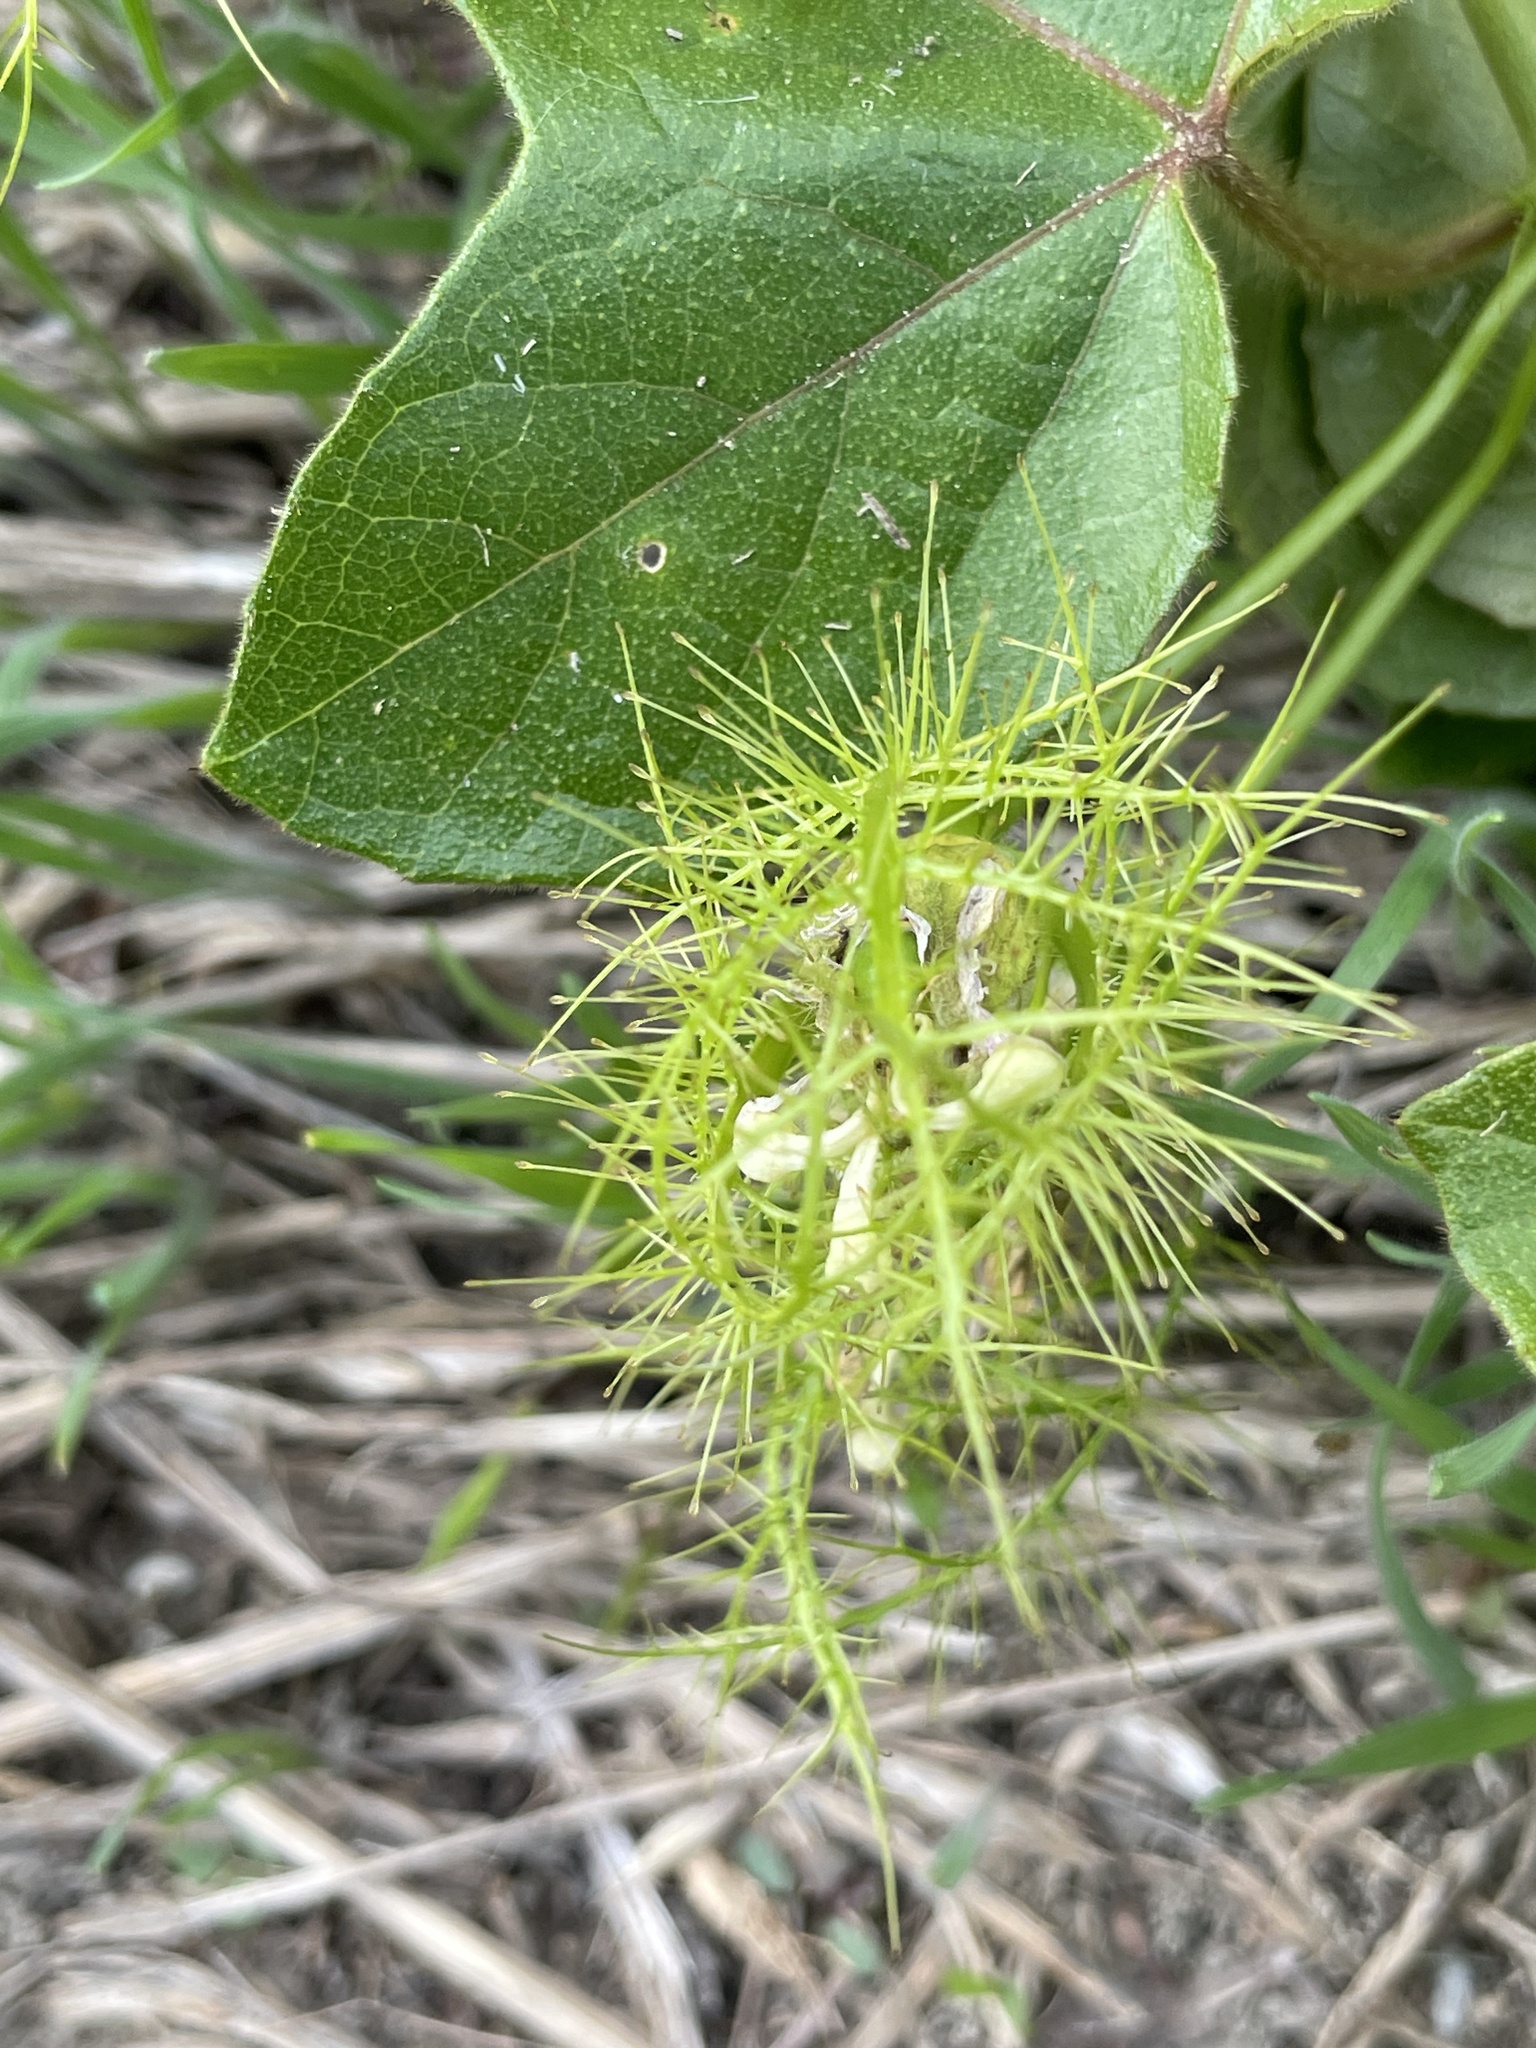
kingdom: Plantae
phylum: Tracheophyta
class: Magnoliopsida
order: Malpighiales
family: Passifloraceae
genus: Passiflora
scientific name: Passiflora
